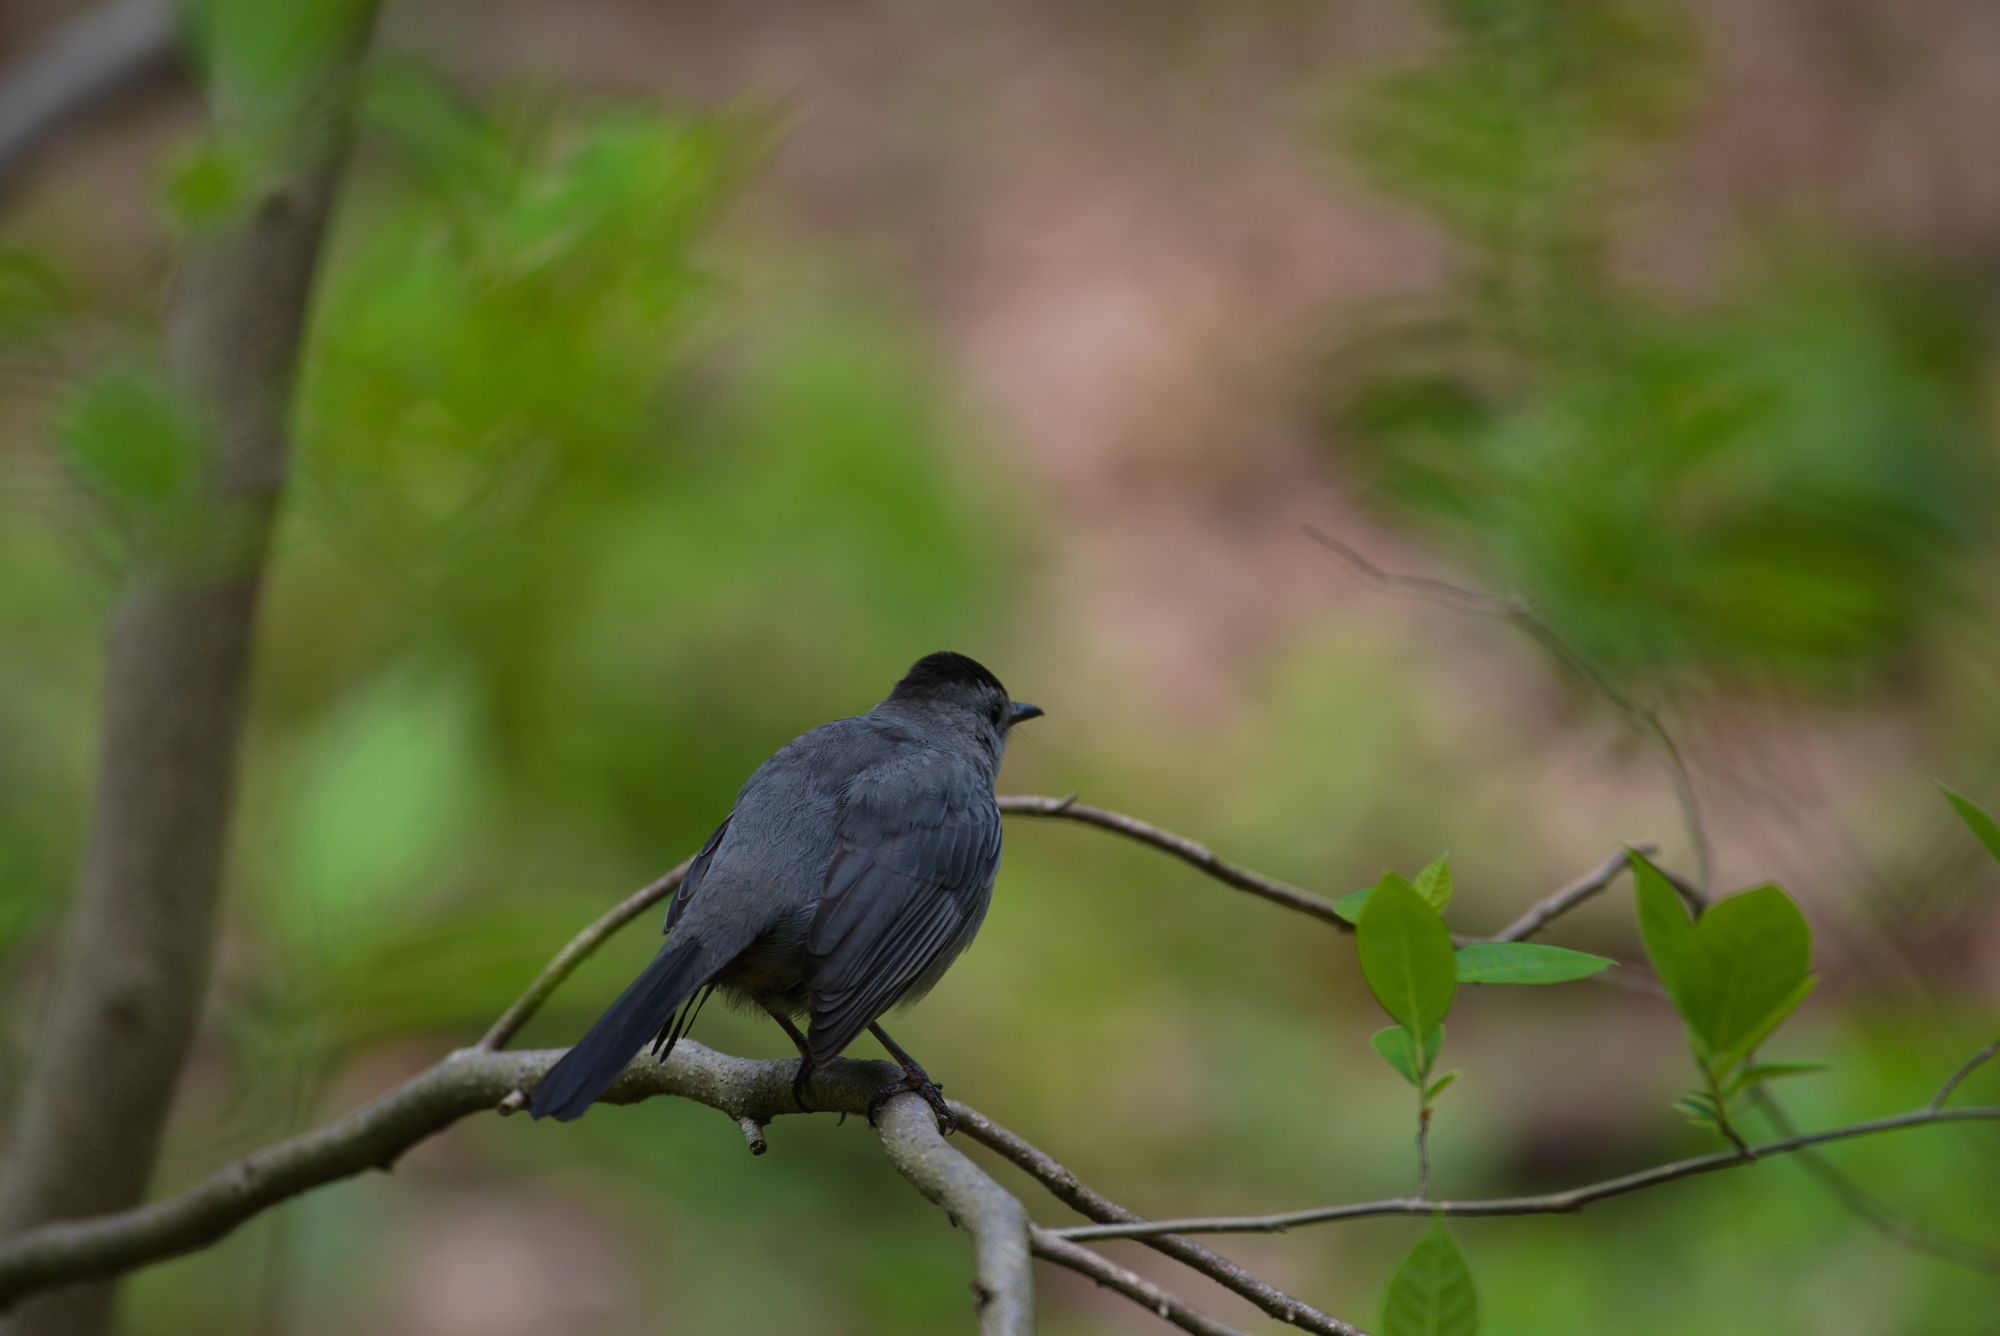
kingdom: Animalia
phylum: Chordata
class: Aves
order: Passeriformes
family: Mimidae
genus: Dumetella
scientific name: Dumetella carolinensis
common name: Gray catbird
